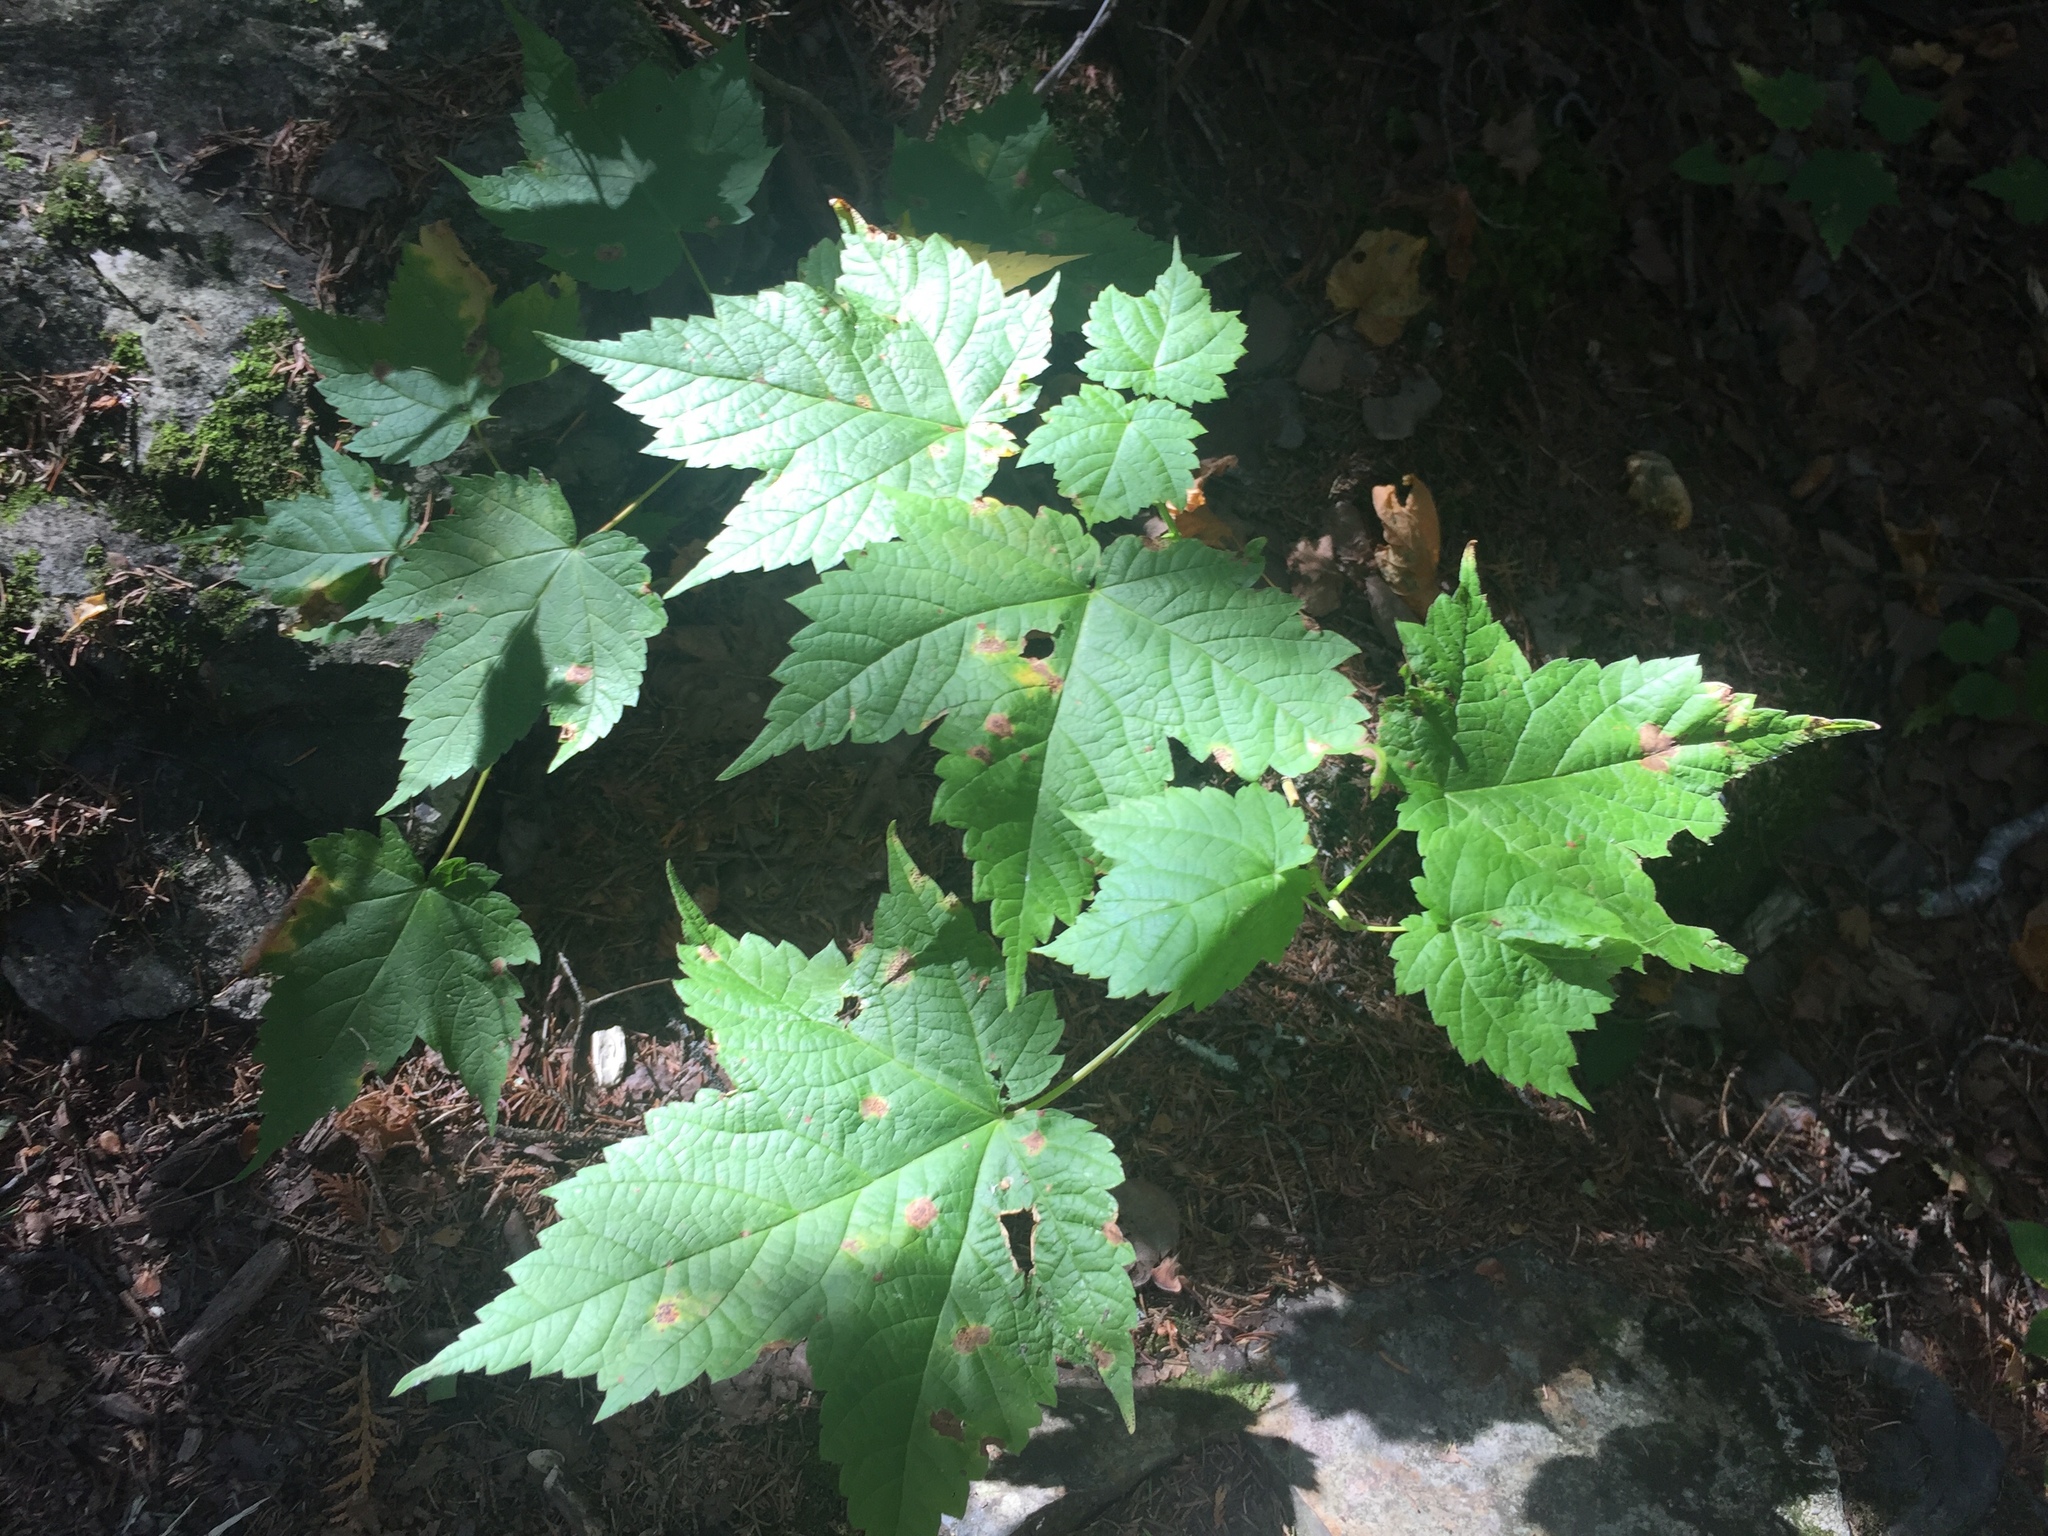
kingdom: Plantae
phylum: Tracheophyta
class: Magnoliopsida
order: Sapindales
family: Sapindaceae
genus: Acer
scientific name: Acer spicatum
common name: Mountain maple
